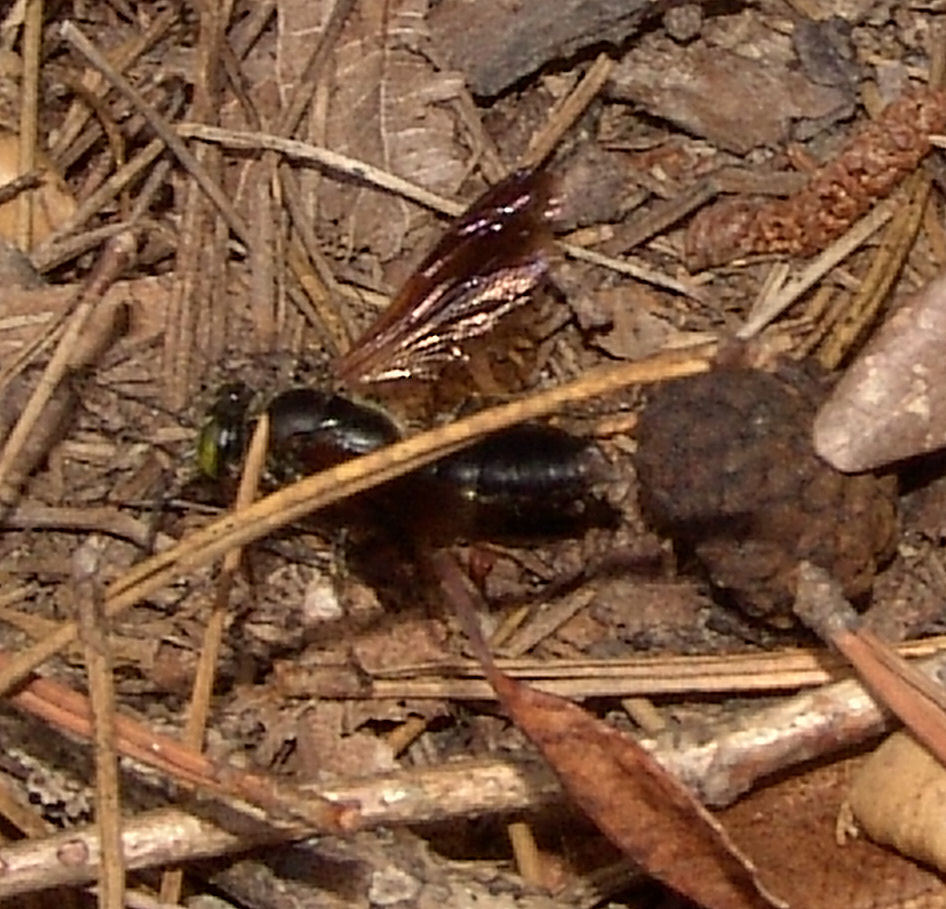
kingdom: Animalia
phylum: Arthropoda
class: Insecta
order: Hymenoptera
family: Crabronidae
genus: Tachytes
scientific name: Tachytes guatemalensis
